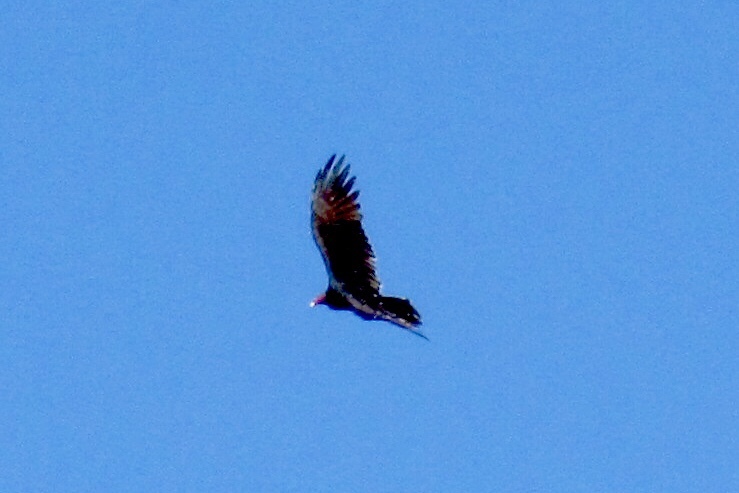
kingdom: Animalia
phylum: Chordata
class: Aves
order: Accipitriformes
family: Cathartidae
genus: Cathartes
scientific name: Cathartes aura
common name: Turkey vulture
